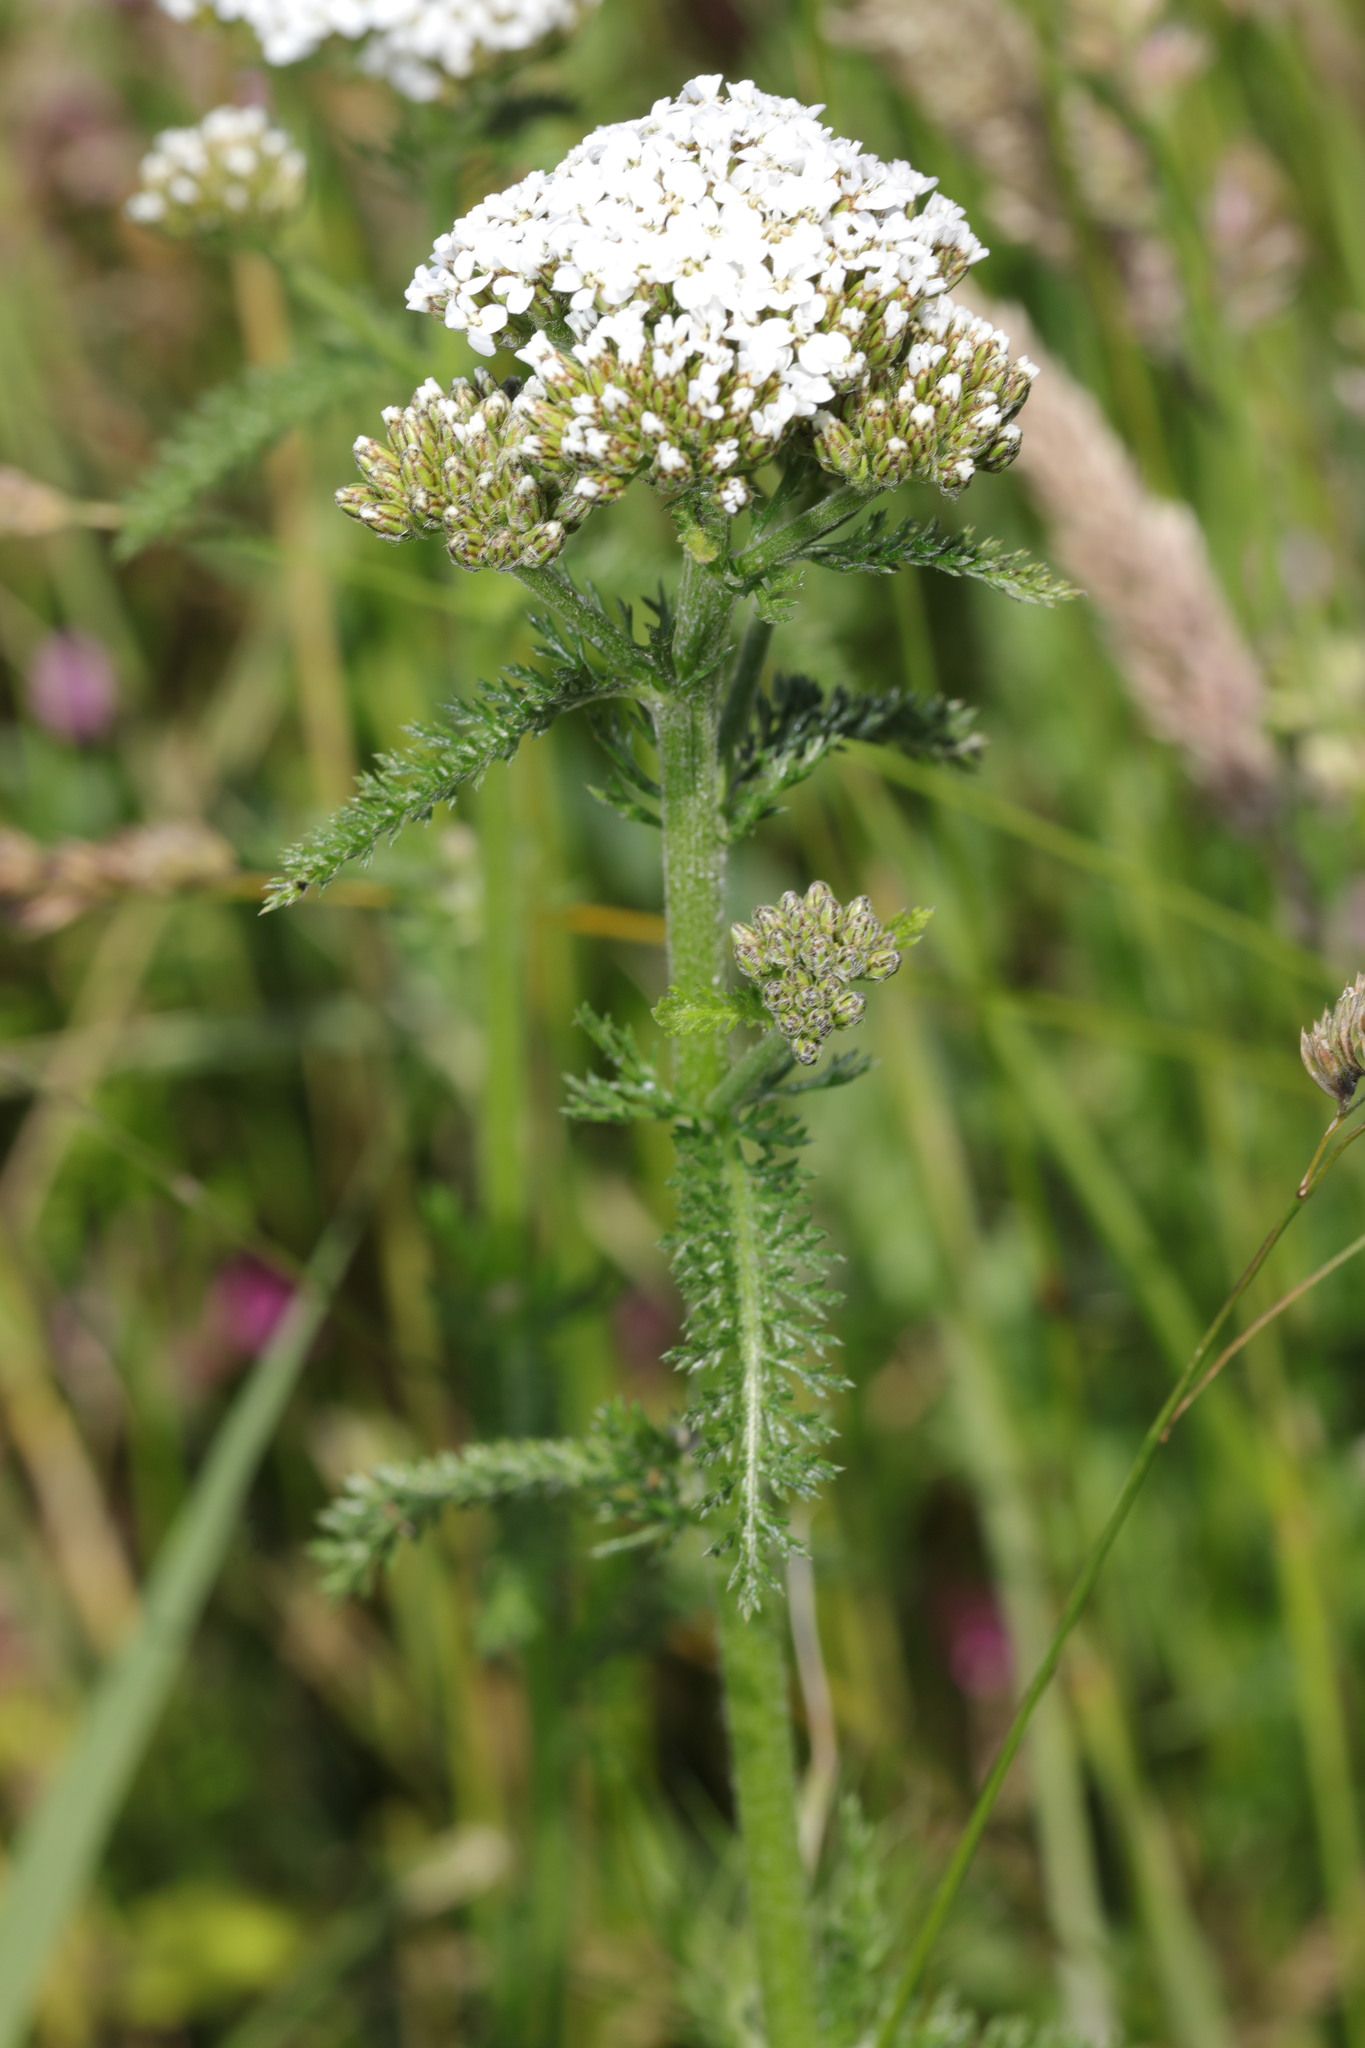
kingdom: Plantae
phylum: Tracheophyta
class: Magnoliopsida
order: Asterales
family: Asteraceae
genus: Achillea
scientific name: Achillea millefolium
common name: Yarrow
